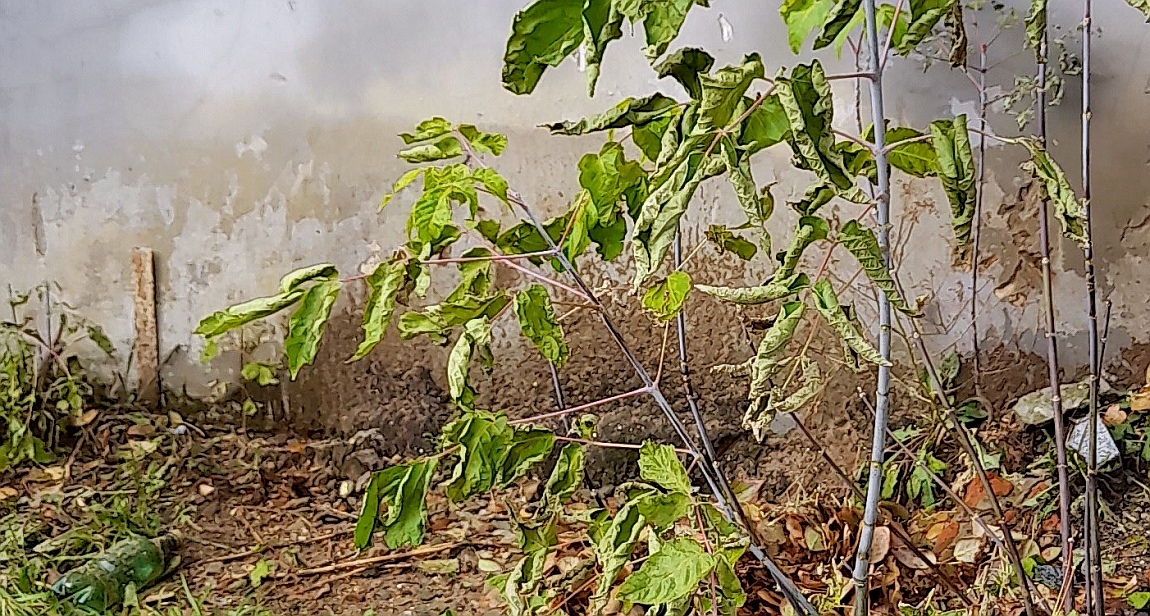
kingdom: Plantae
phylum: Tracheophyta
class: Magnoliopsida
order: Sapindales
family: Sapindaceae
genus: Acer
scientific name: Acer negundo
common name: Ashleaf maple
